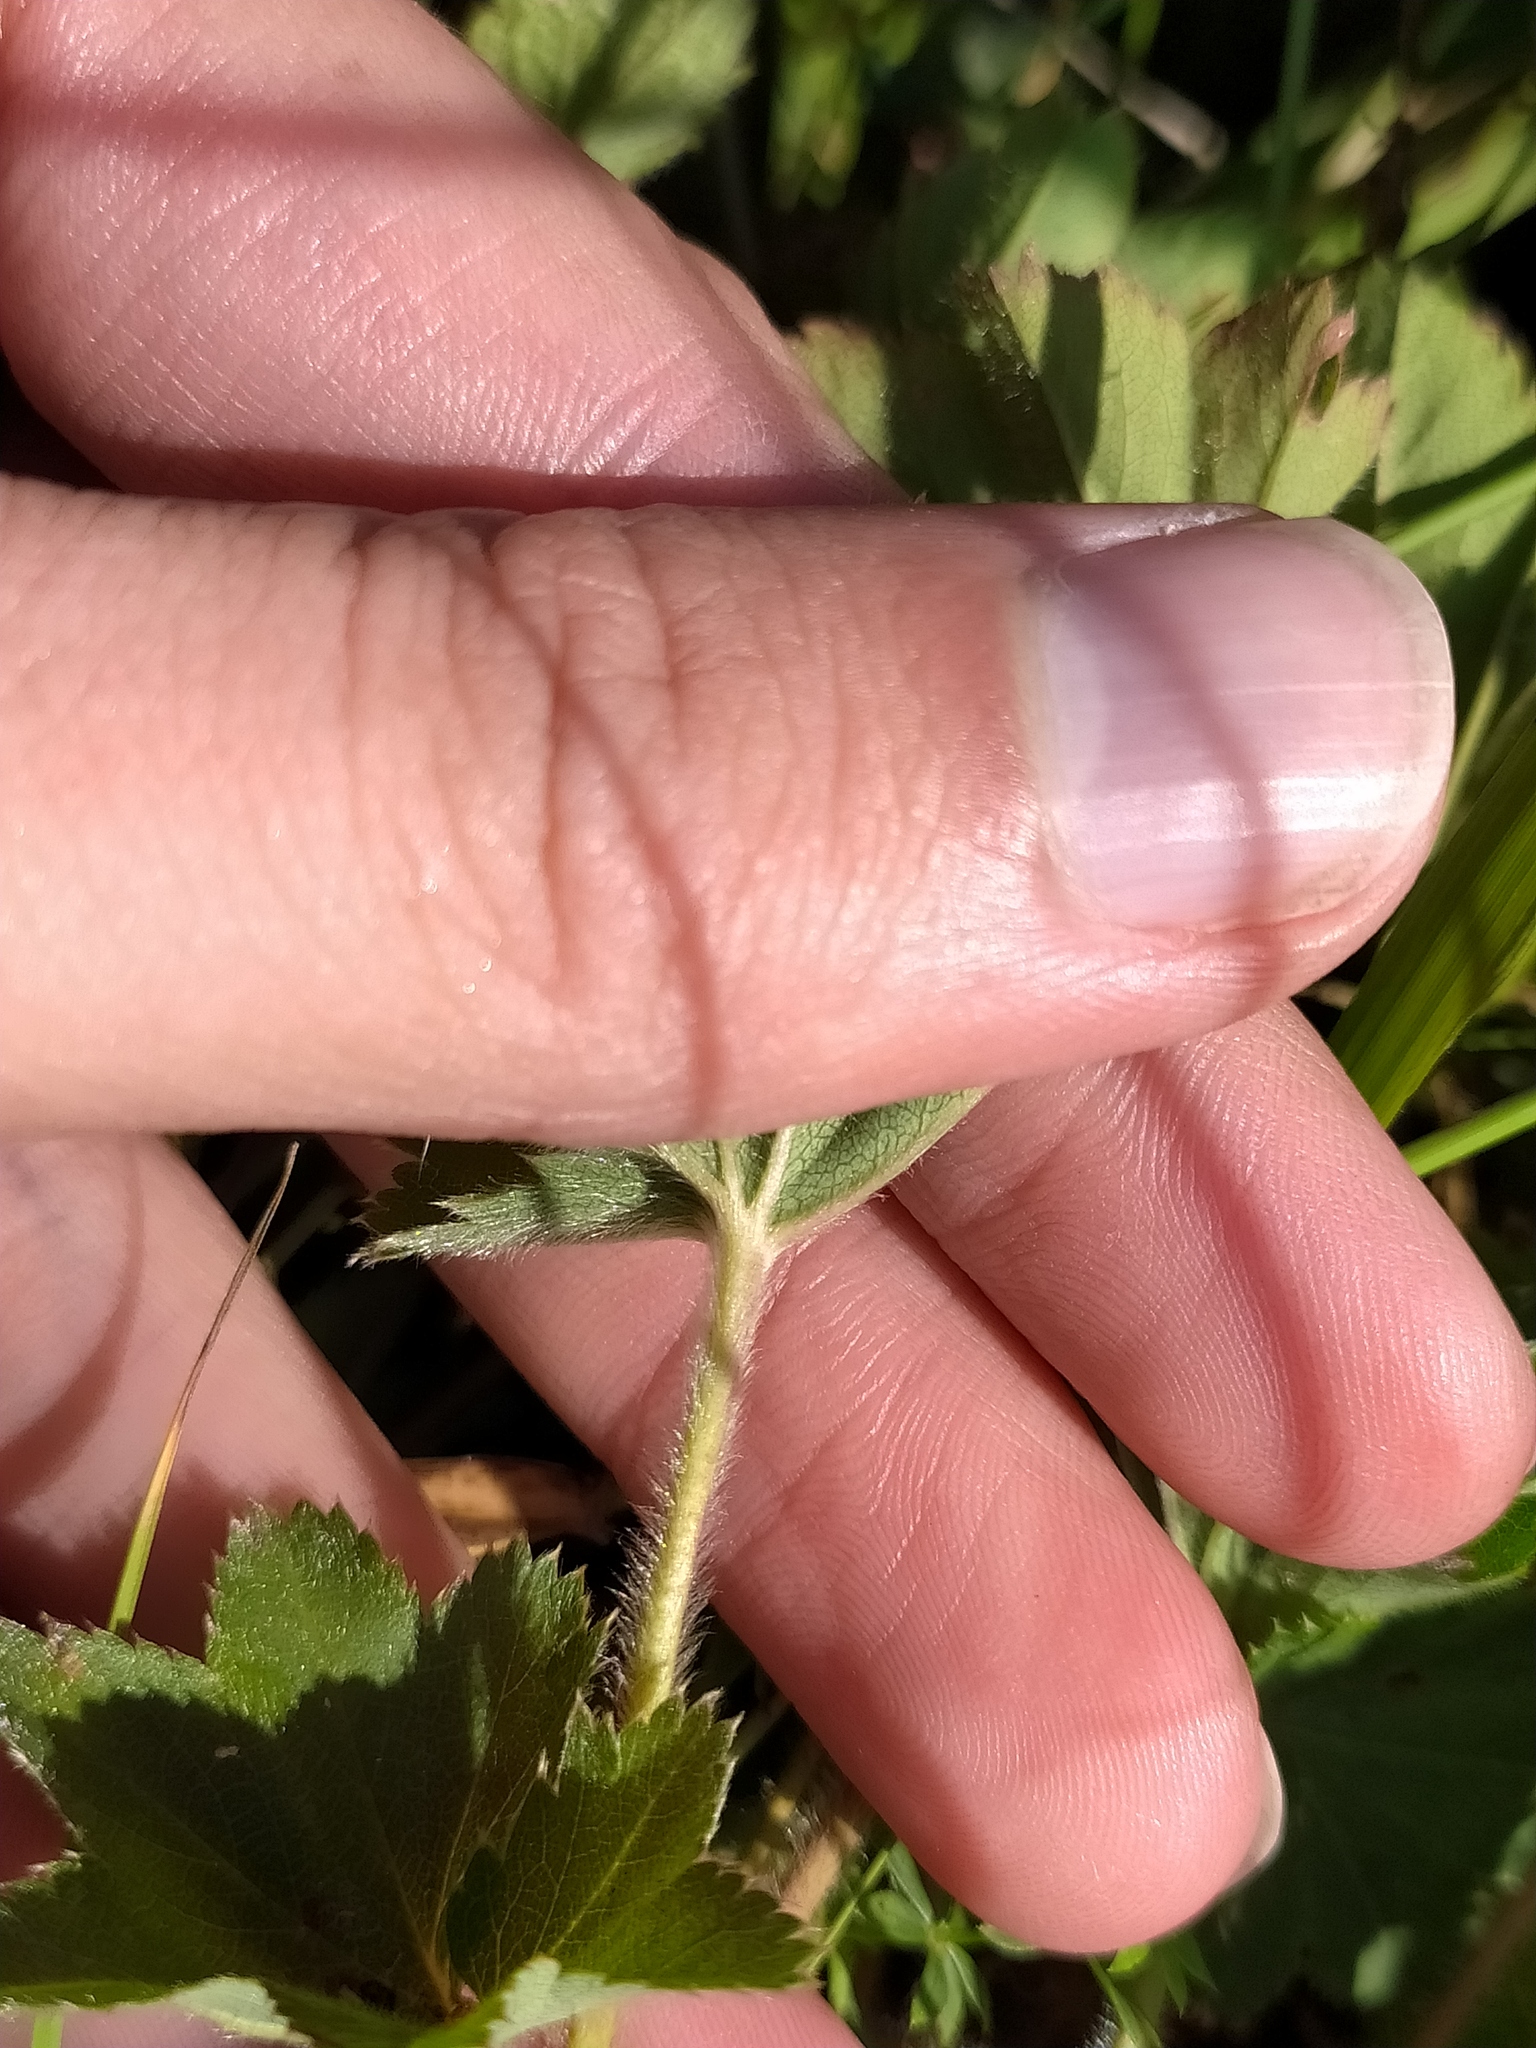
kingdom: Plantae
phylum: Tracheophyta
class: Magnoliopsida
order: Rosales
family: Rosaceae
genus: Alchemilla
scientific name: Alchemilla micans
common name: Gleaming lady's mantle
